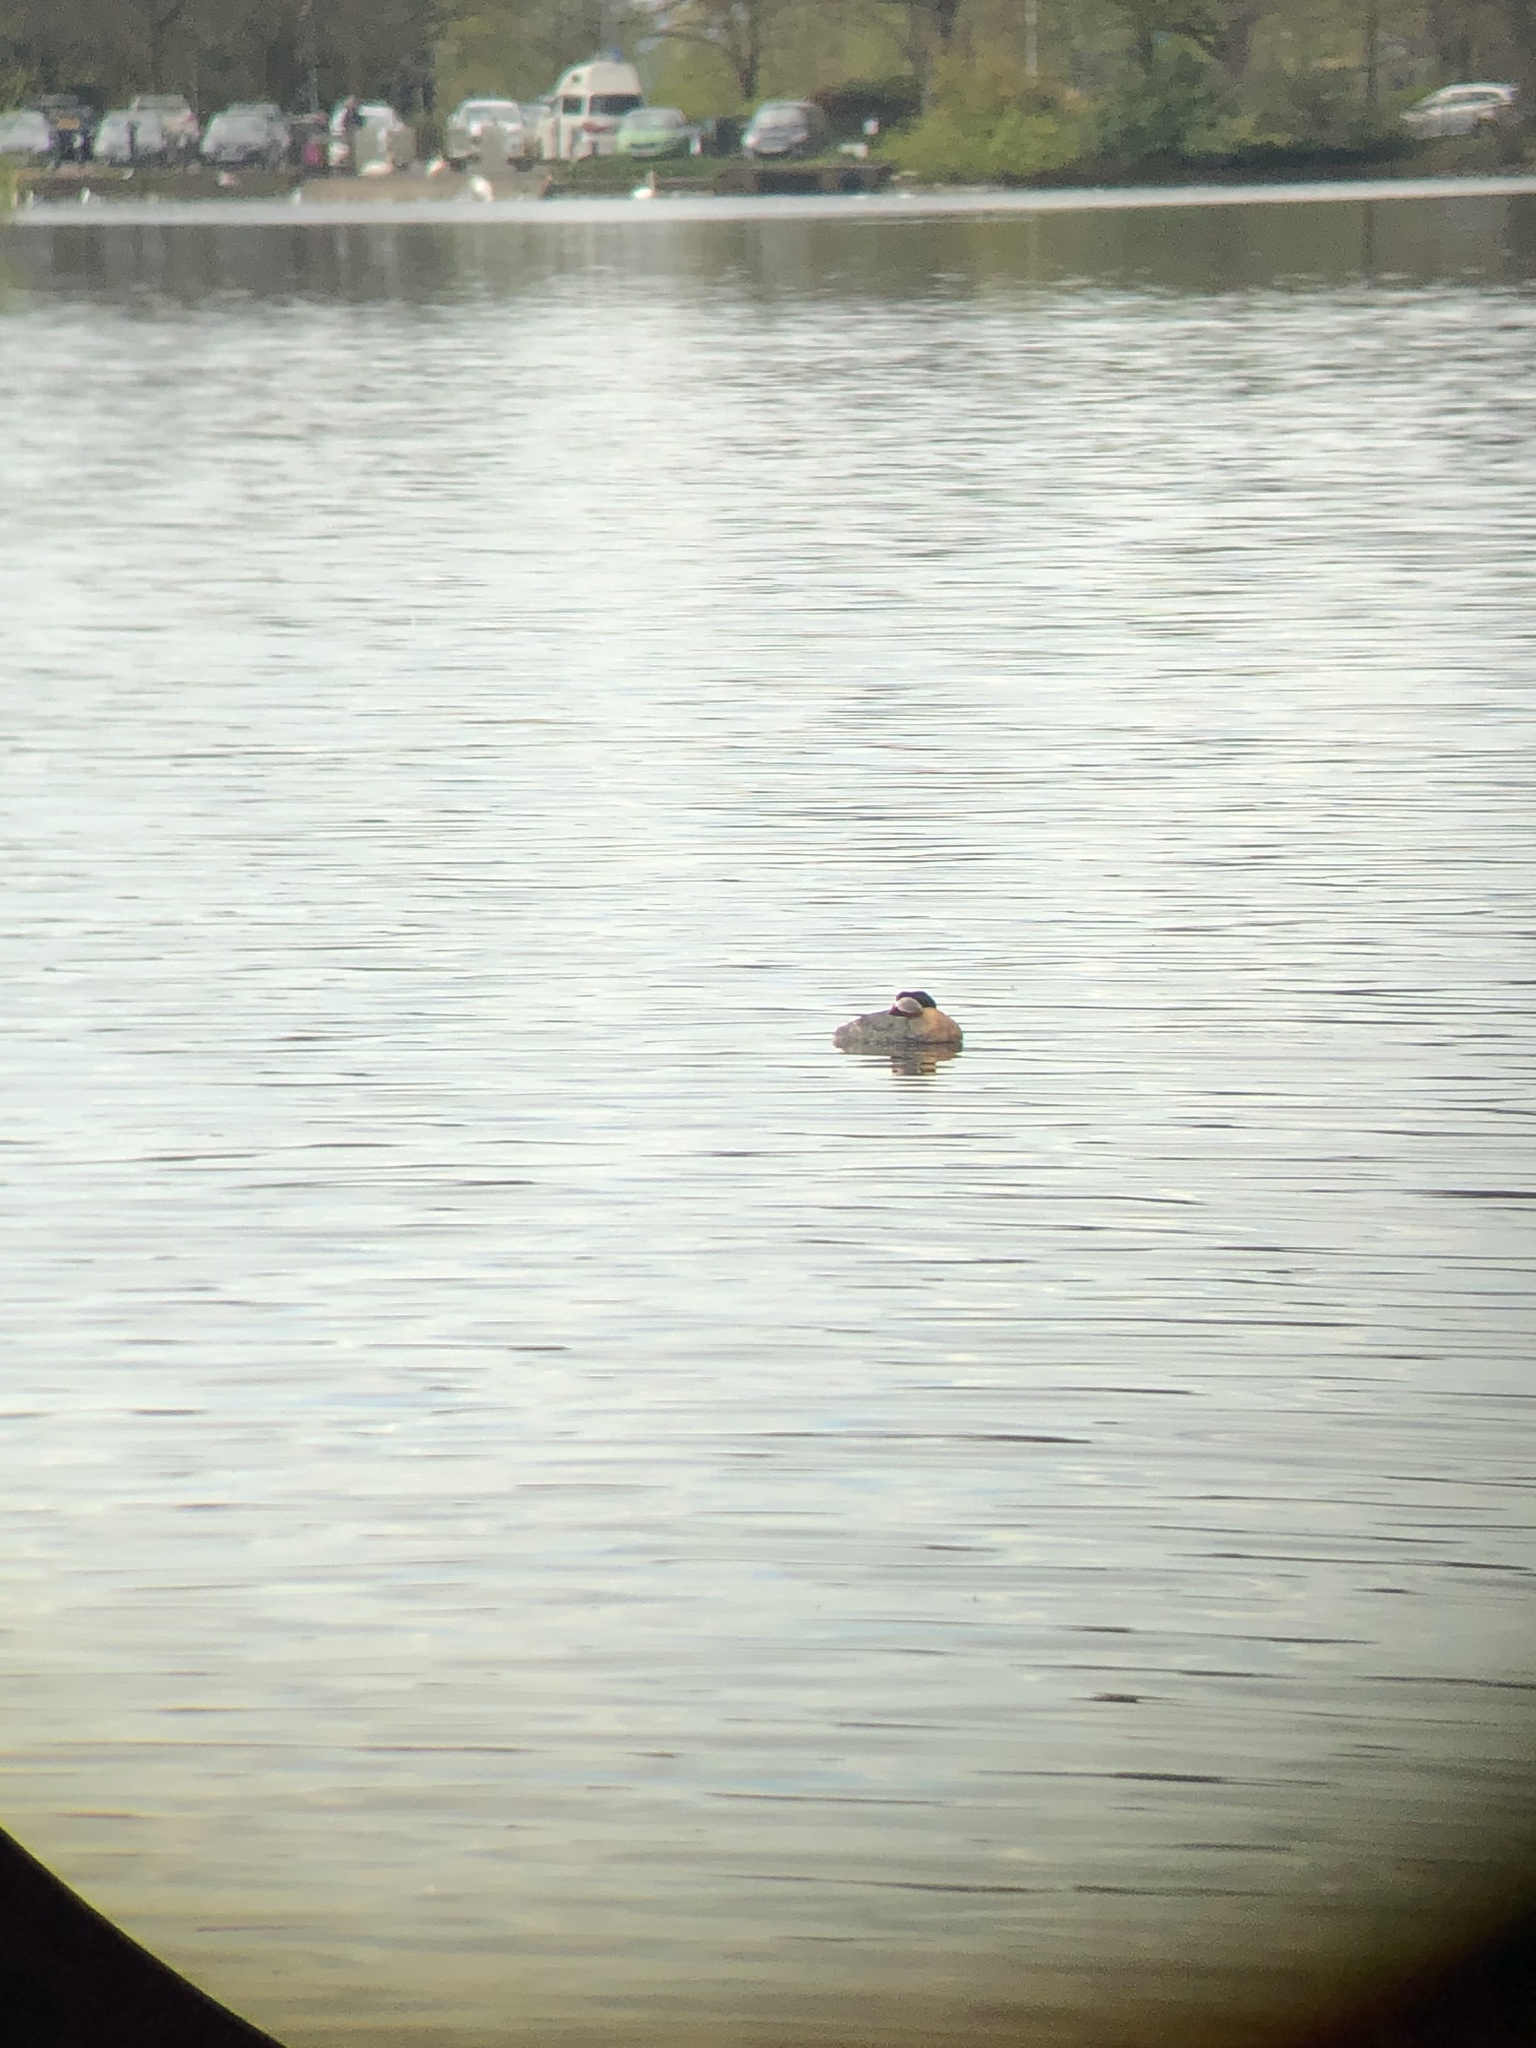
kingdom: Animalia
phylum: Chordata
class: Aves
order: Podicipediformes
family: Podicipedidae
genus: Podiceps
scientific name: Podiceps grisegena
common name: Red-necked grebe
